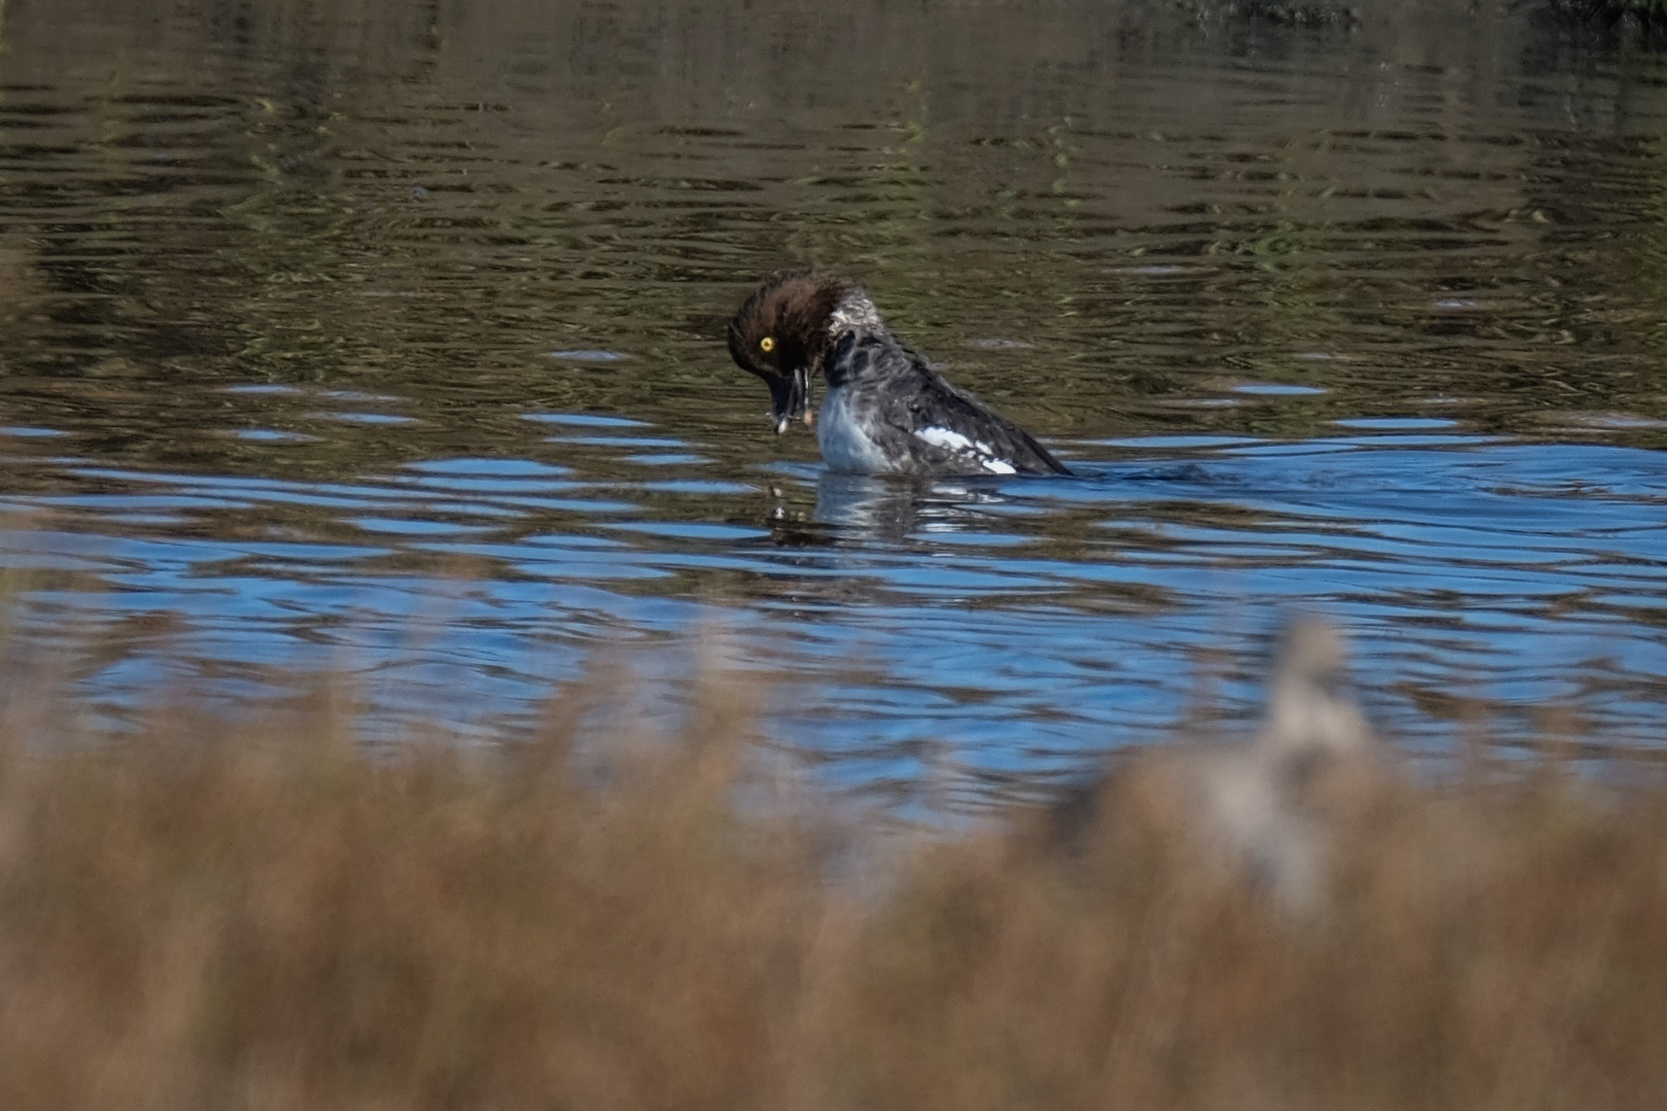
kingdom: Animalia
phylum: Chordata
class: Aves
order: Anseriformes
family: Anatidae
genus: Bucephala
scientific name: Bucephala clangula
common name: Common goldeneye
